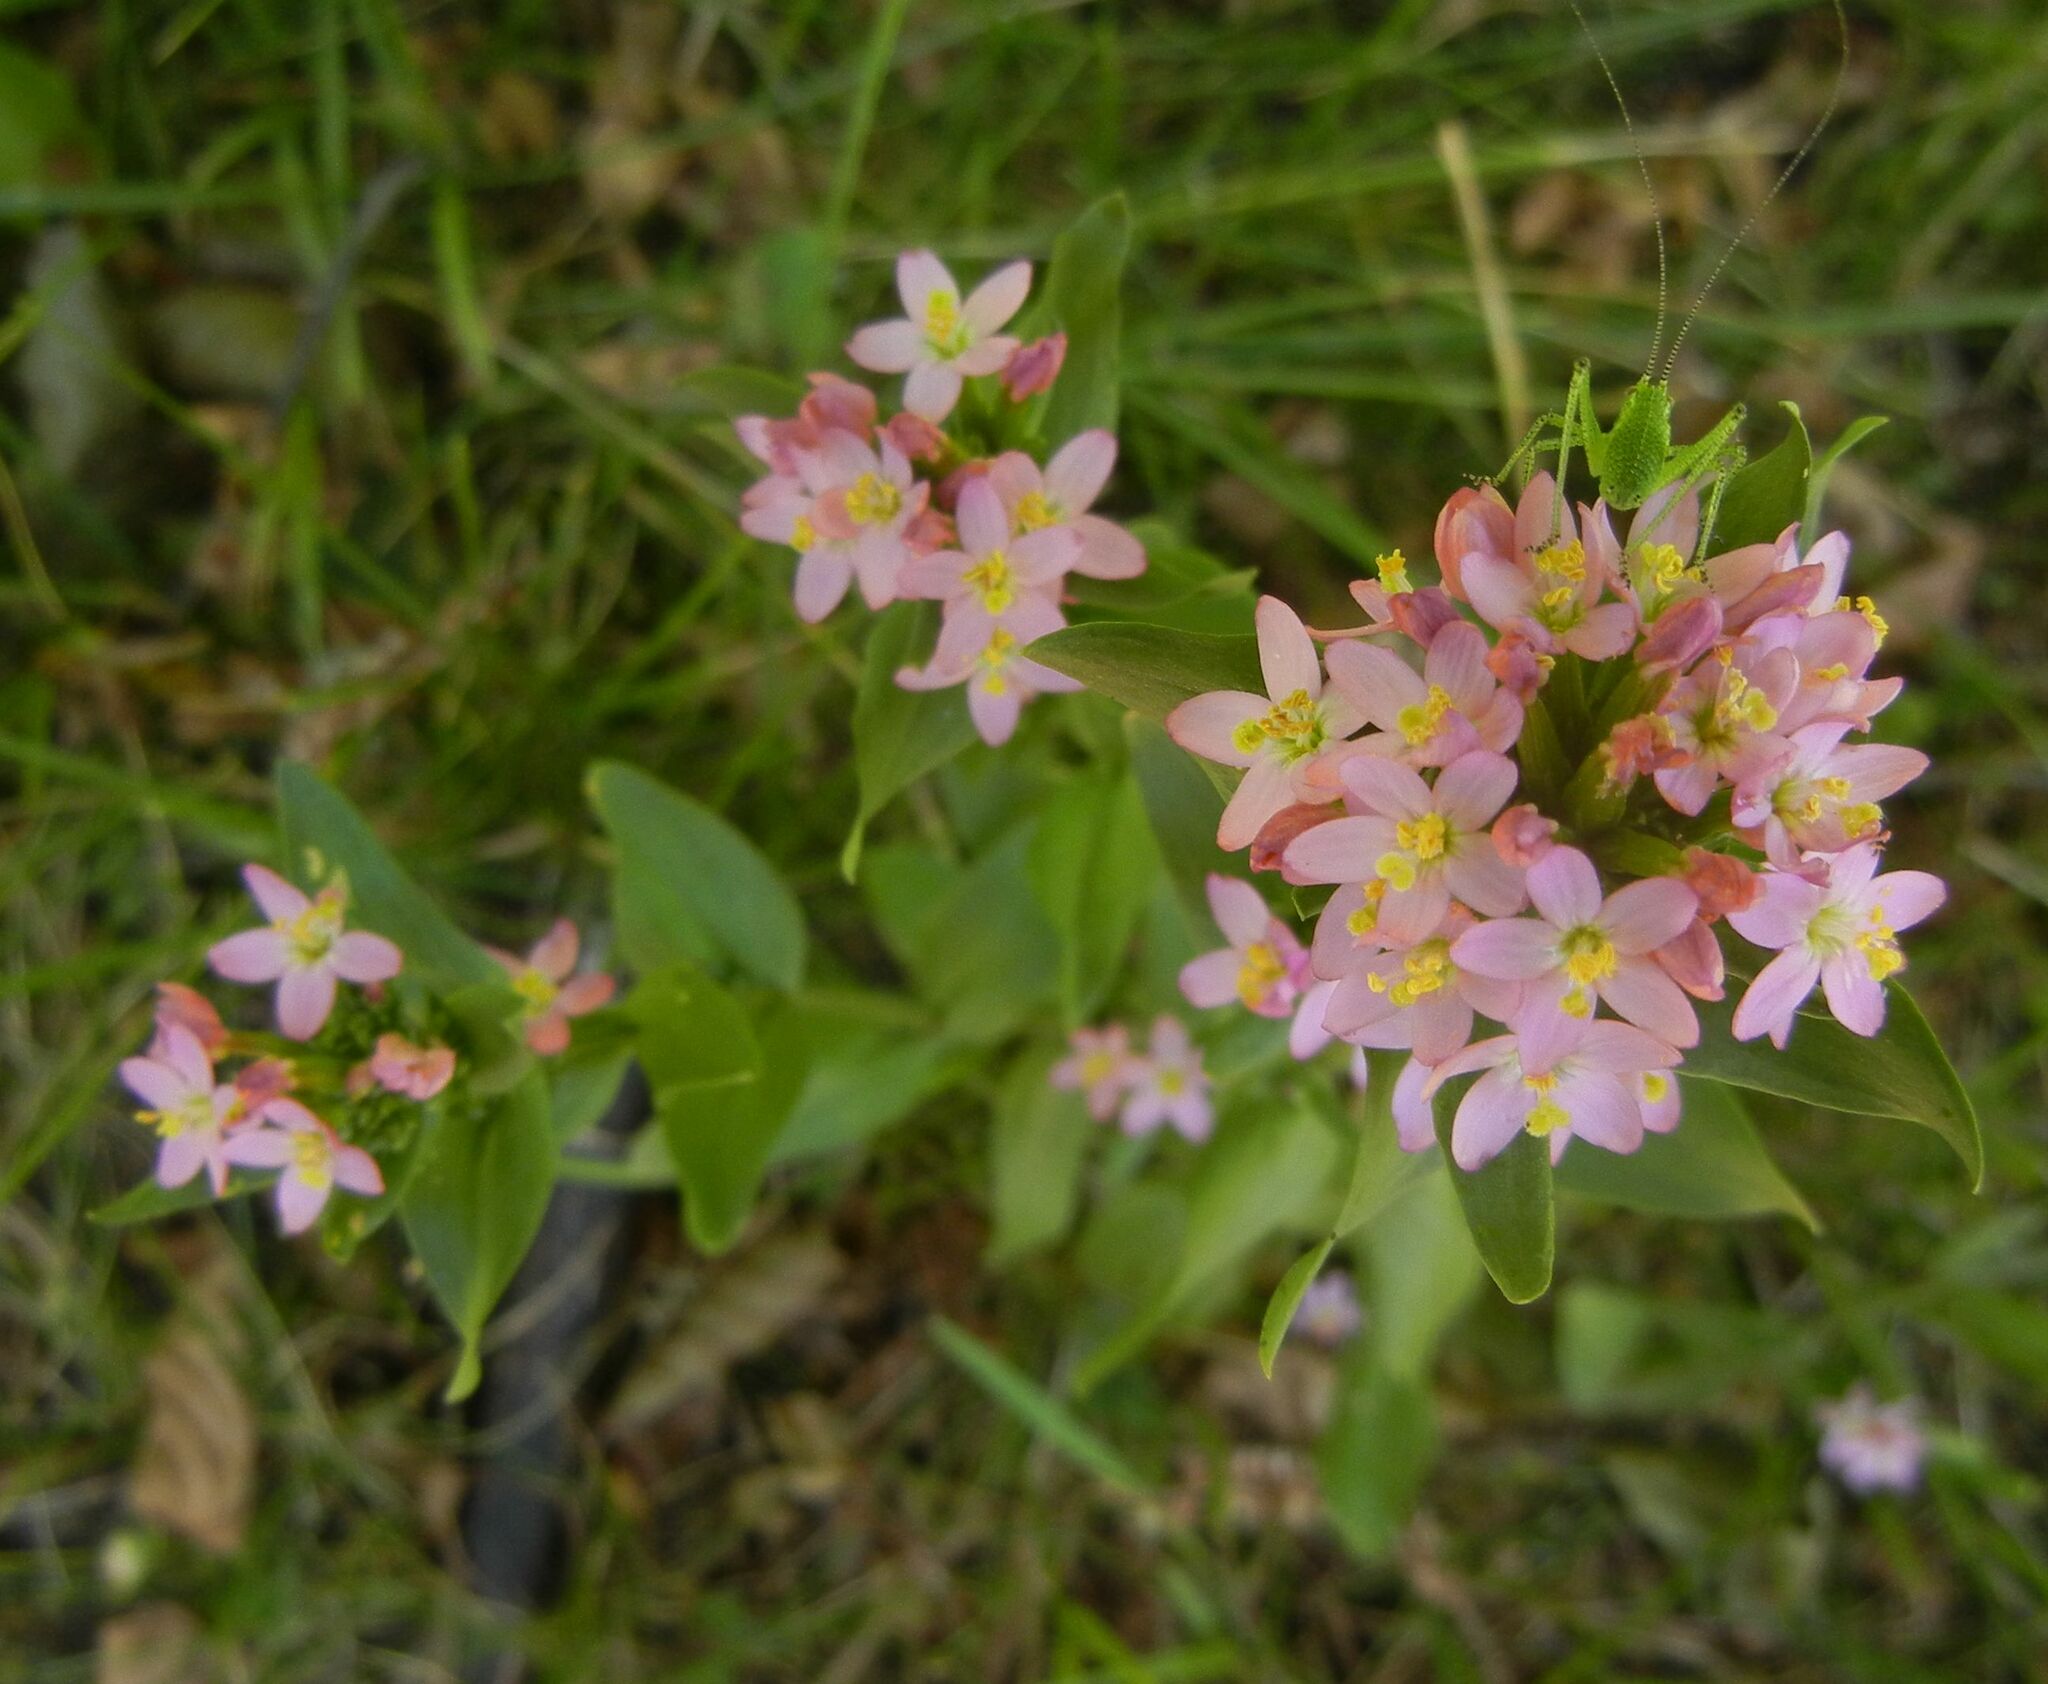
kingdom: Plantae
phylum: Tracheophyta
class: Magnoliopsida
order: Gentianales
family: Gentianaceae
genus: Centaurium
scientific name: Centaurium erythraea
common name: Common centaury
